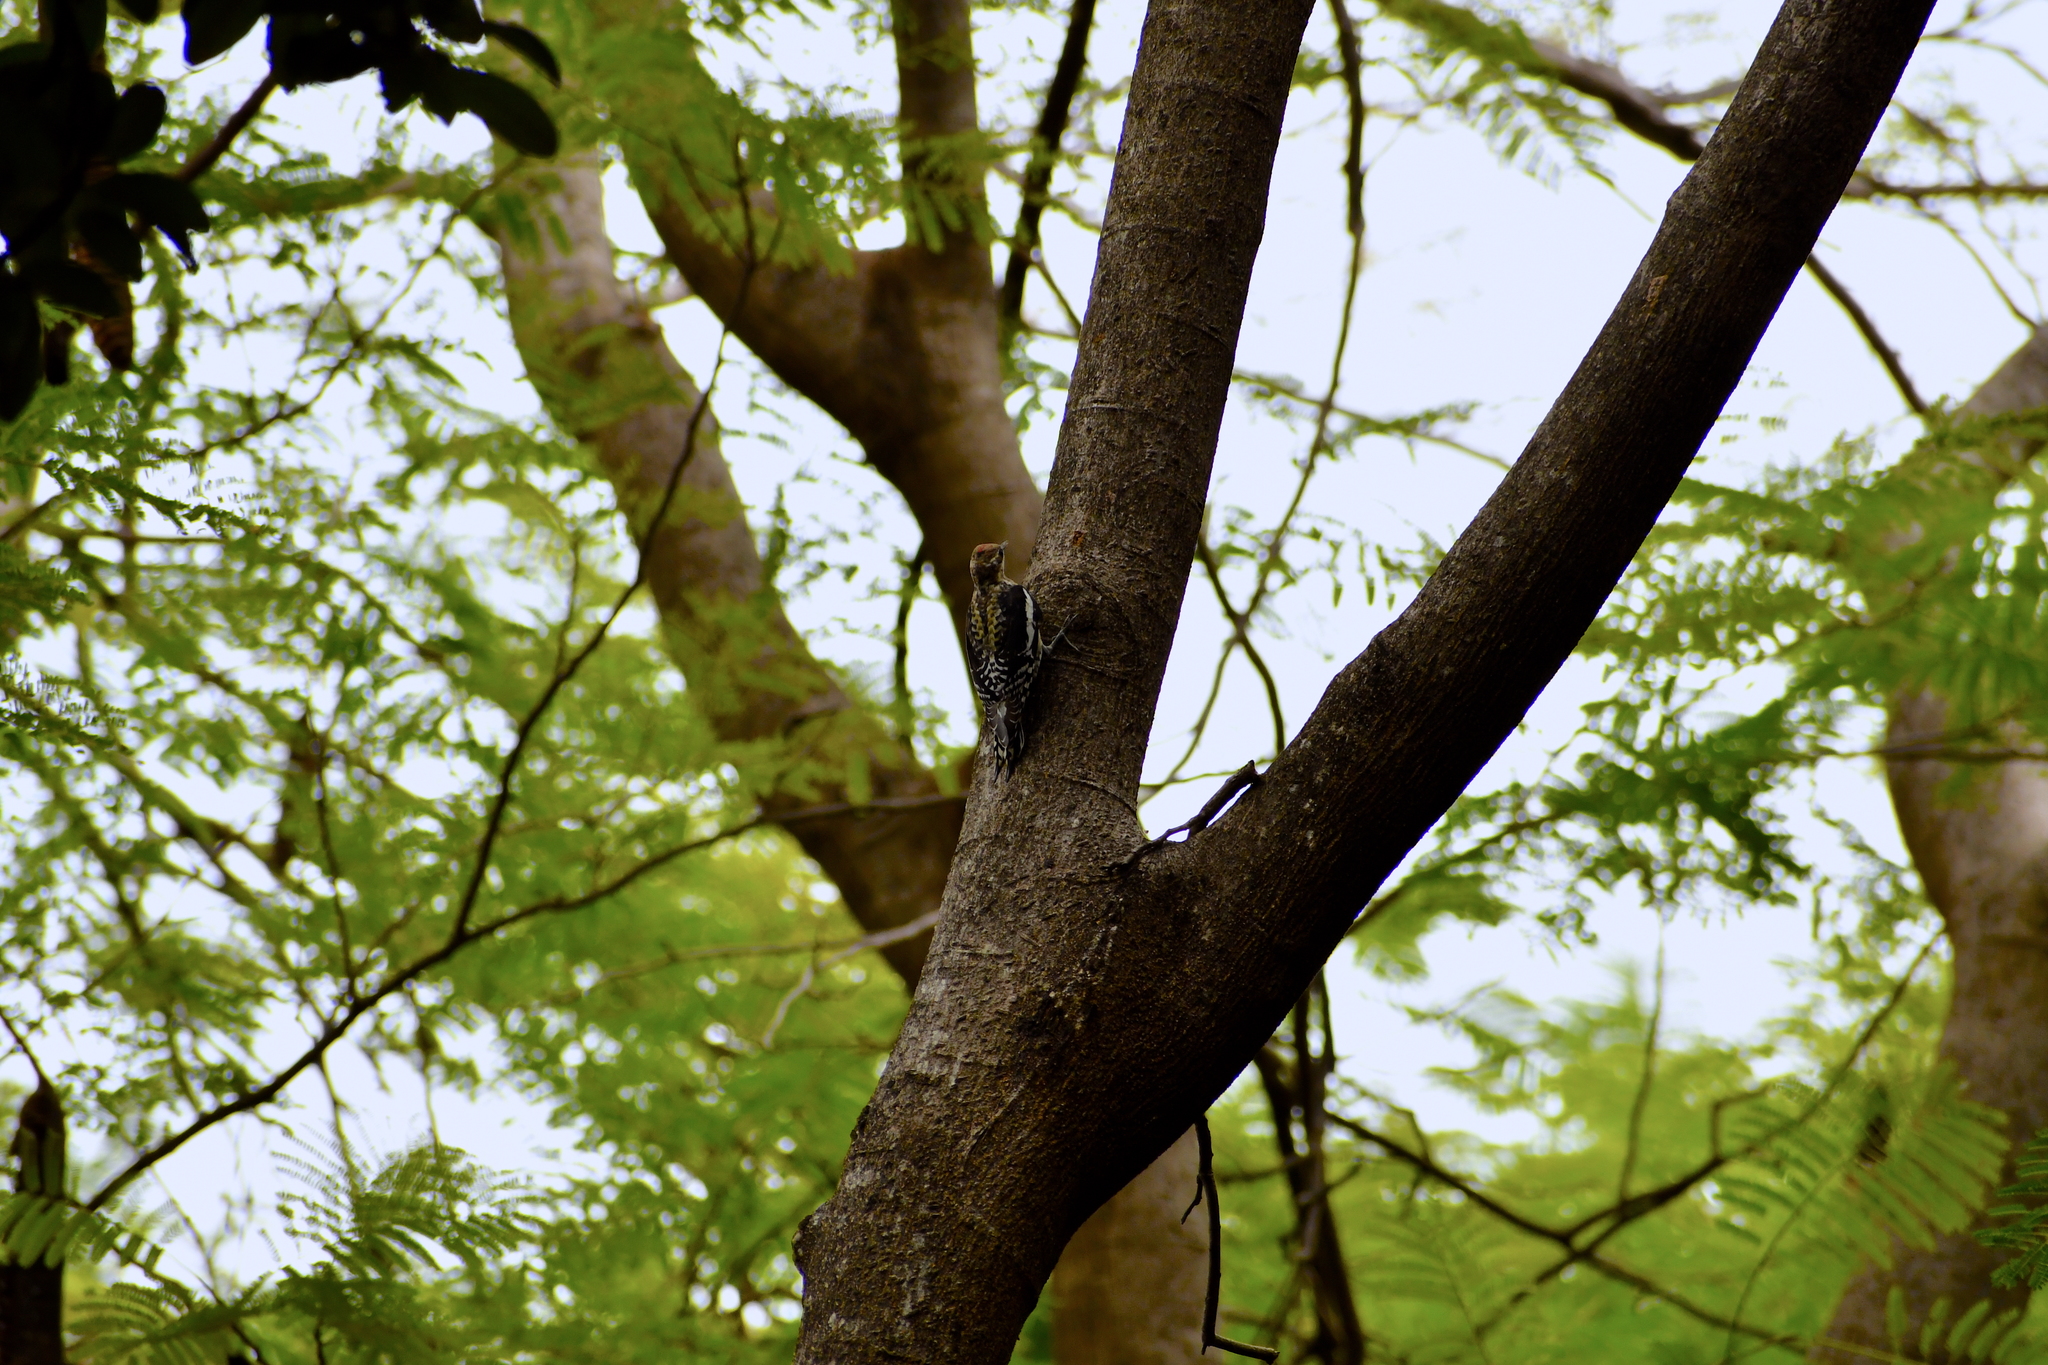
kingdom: Animalia
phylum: Chordata
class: Aves
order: Piciformes
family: Picidae
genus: Sphyrapicus
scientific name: Sphyrapicus varius
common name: Yellow-bellied sapsucker
